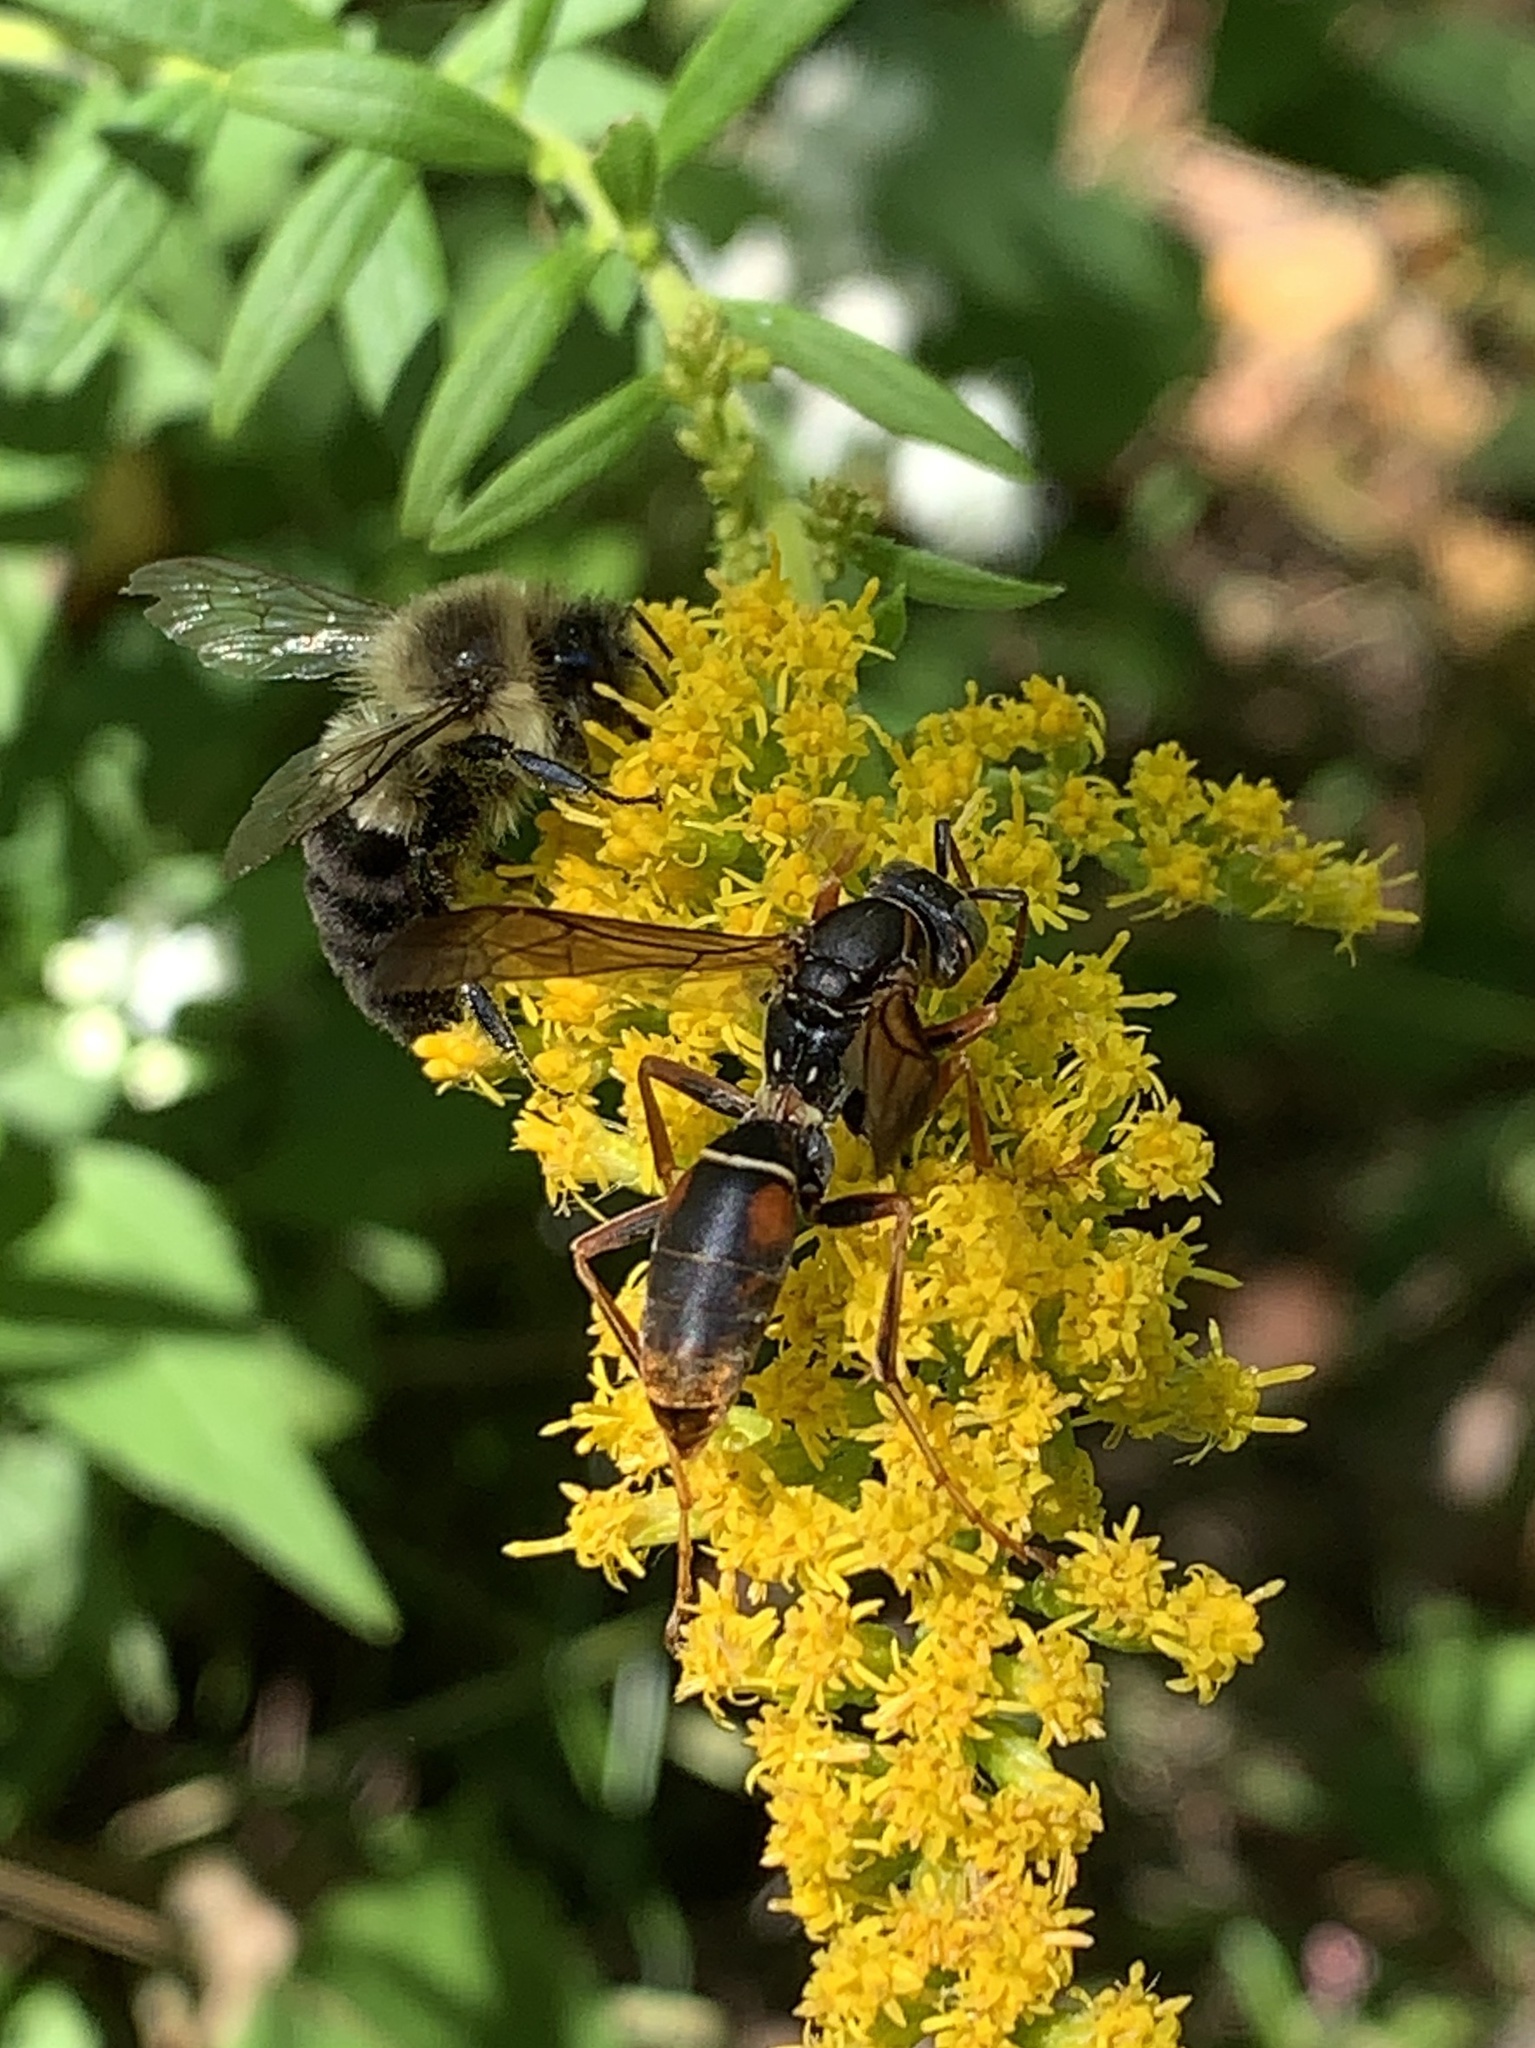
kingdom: Animalia
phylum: Arthropoda
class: Insecta
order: Hymenoptera
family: Eumenidae
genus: Polistes
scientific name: Polistes fuscatus
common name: Dark paper wasp
